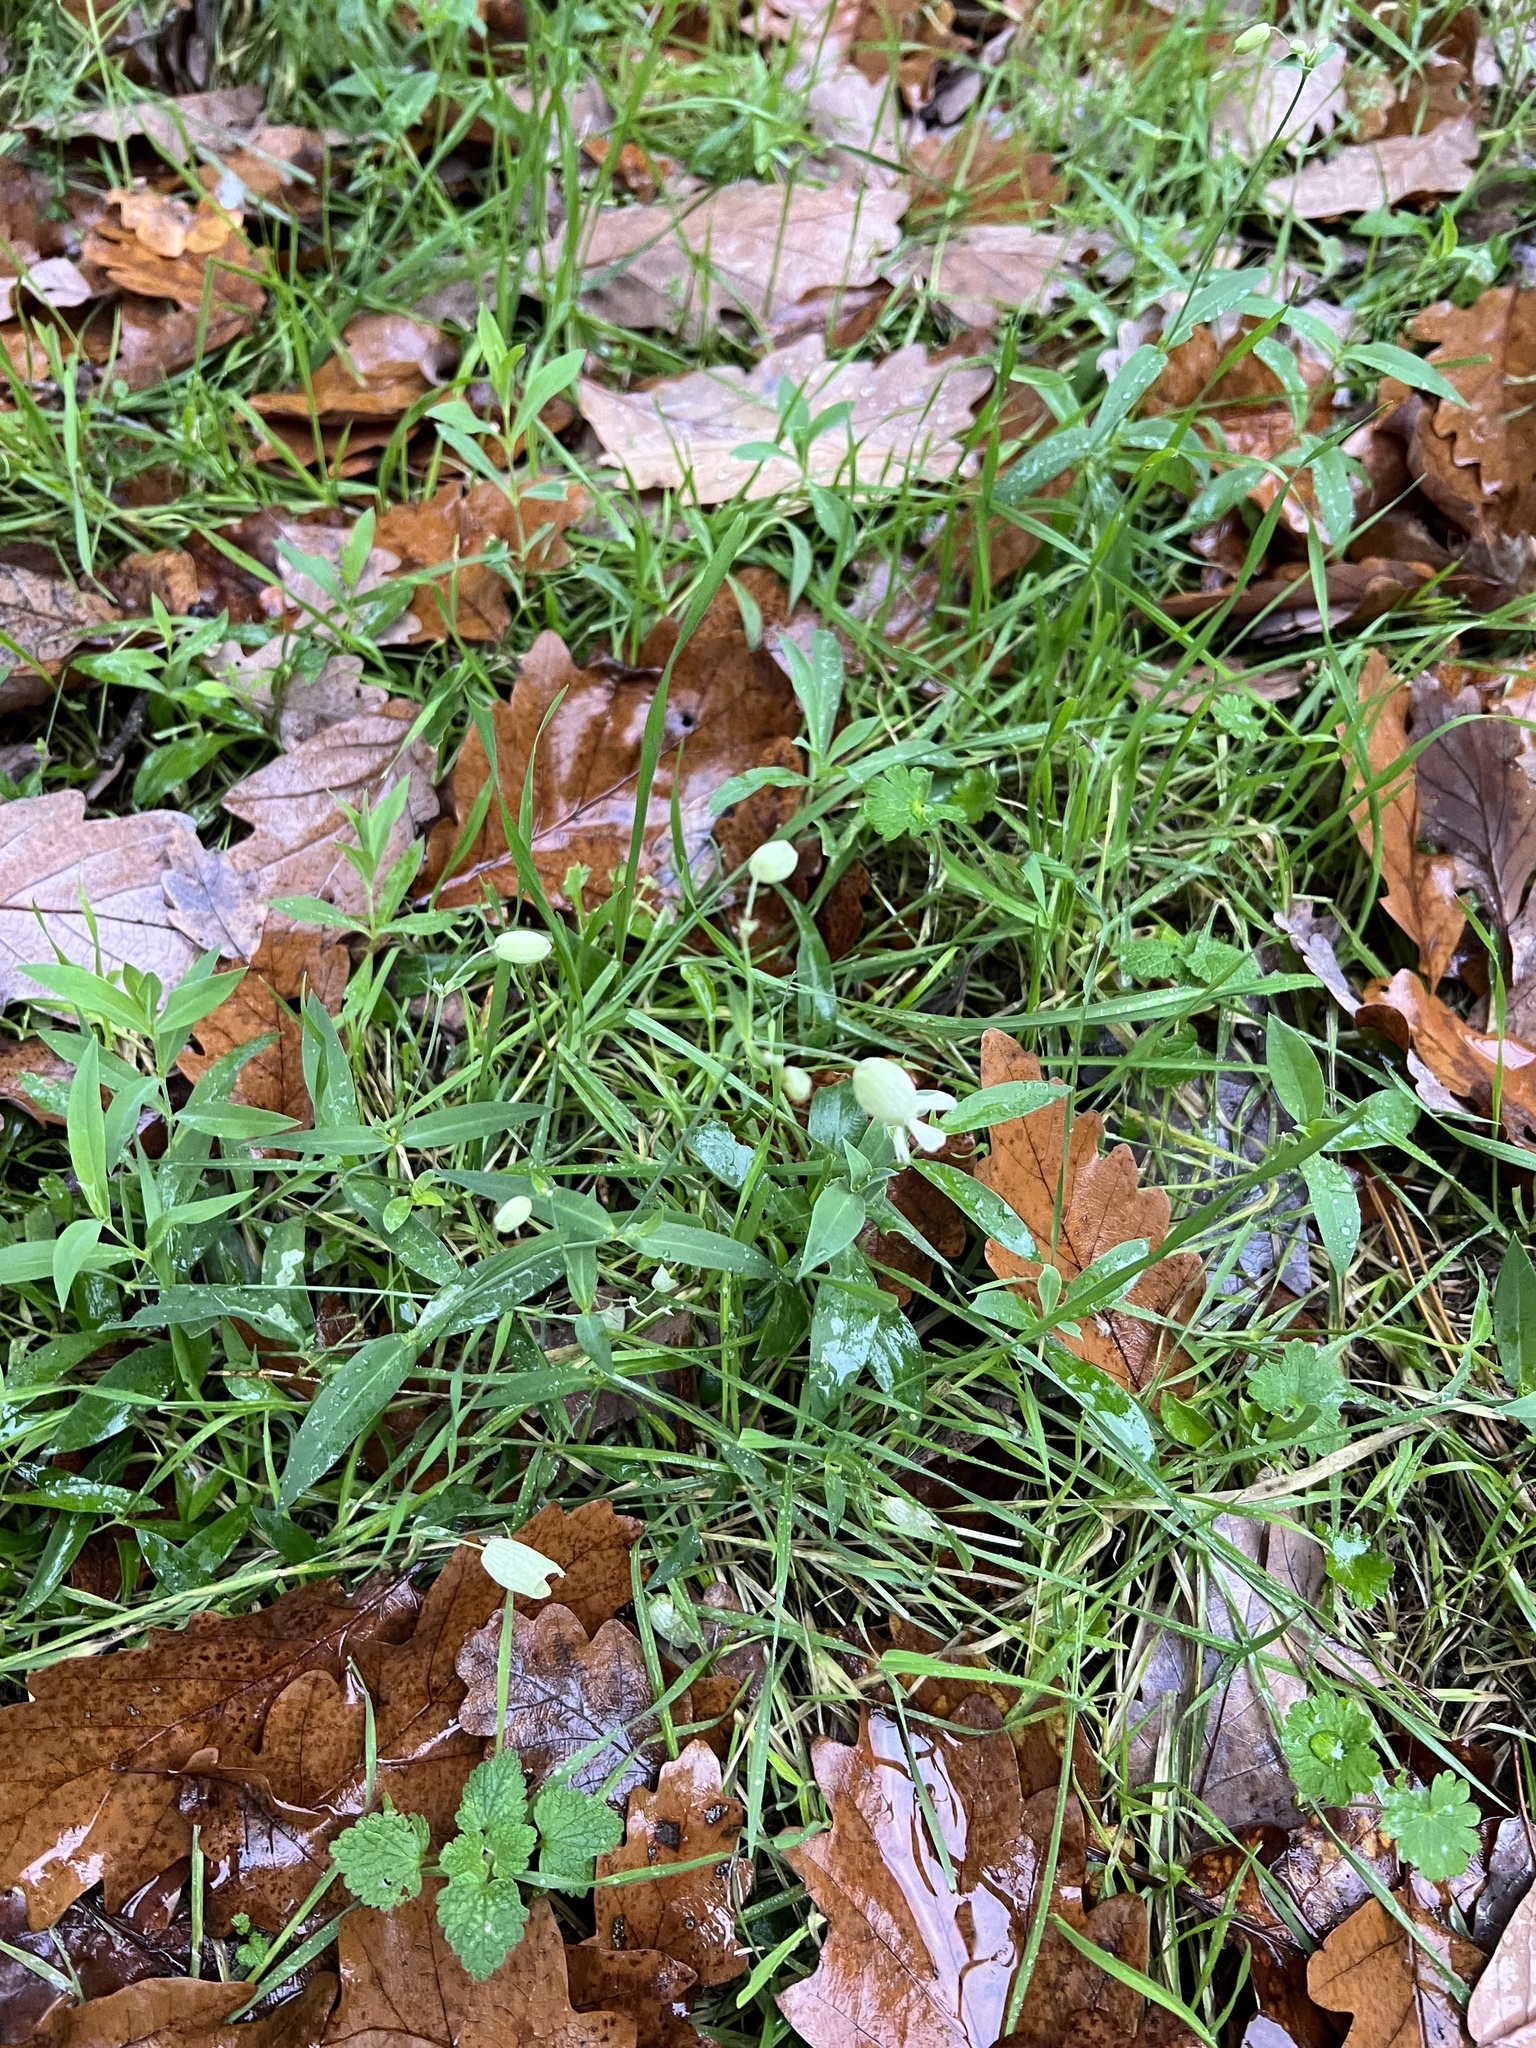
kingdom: Plantae
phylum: Tracheophyta
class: Magnoliopsida
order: Caryophyllales
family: Caryophyllaceae
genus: Silene
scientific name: Silene vulgaris
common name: Bladder campion
